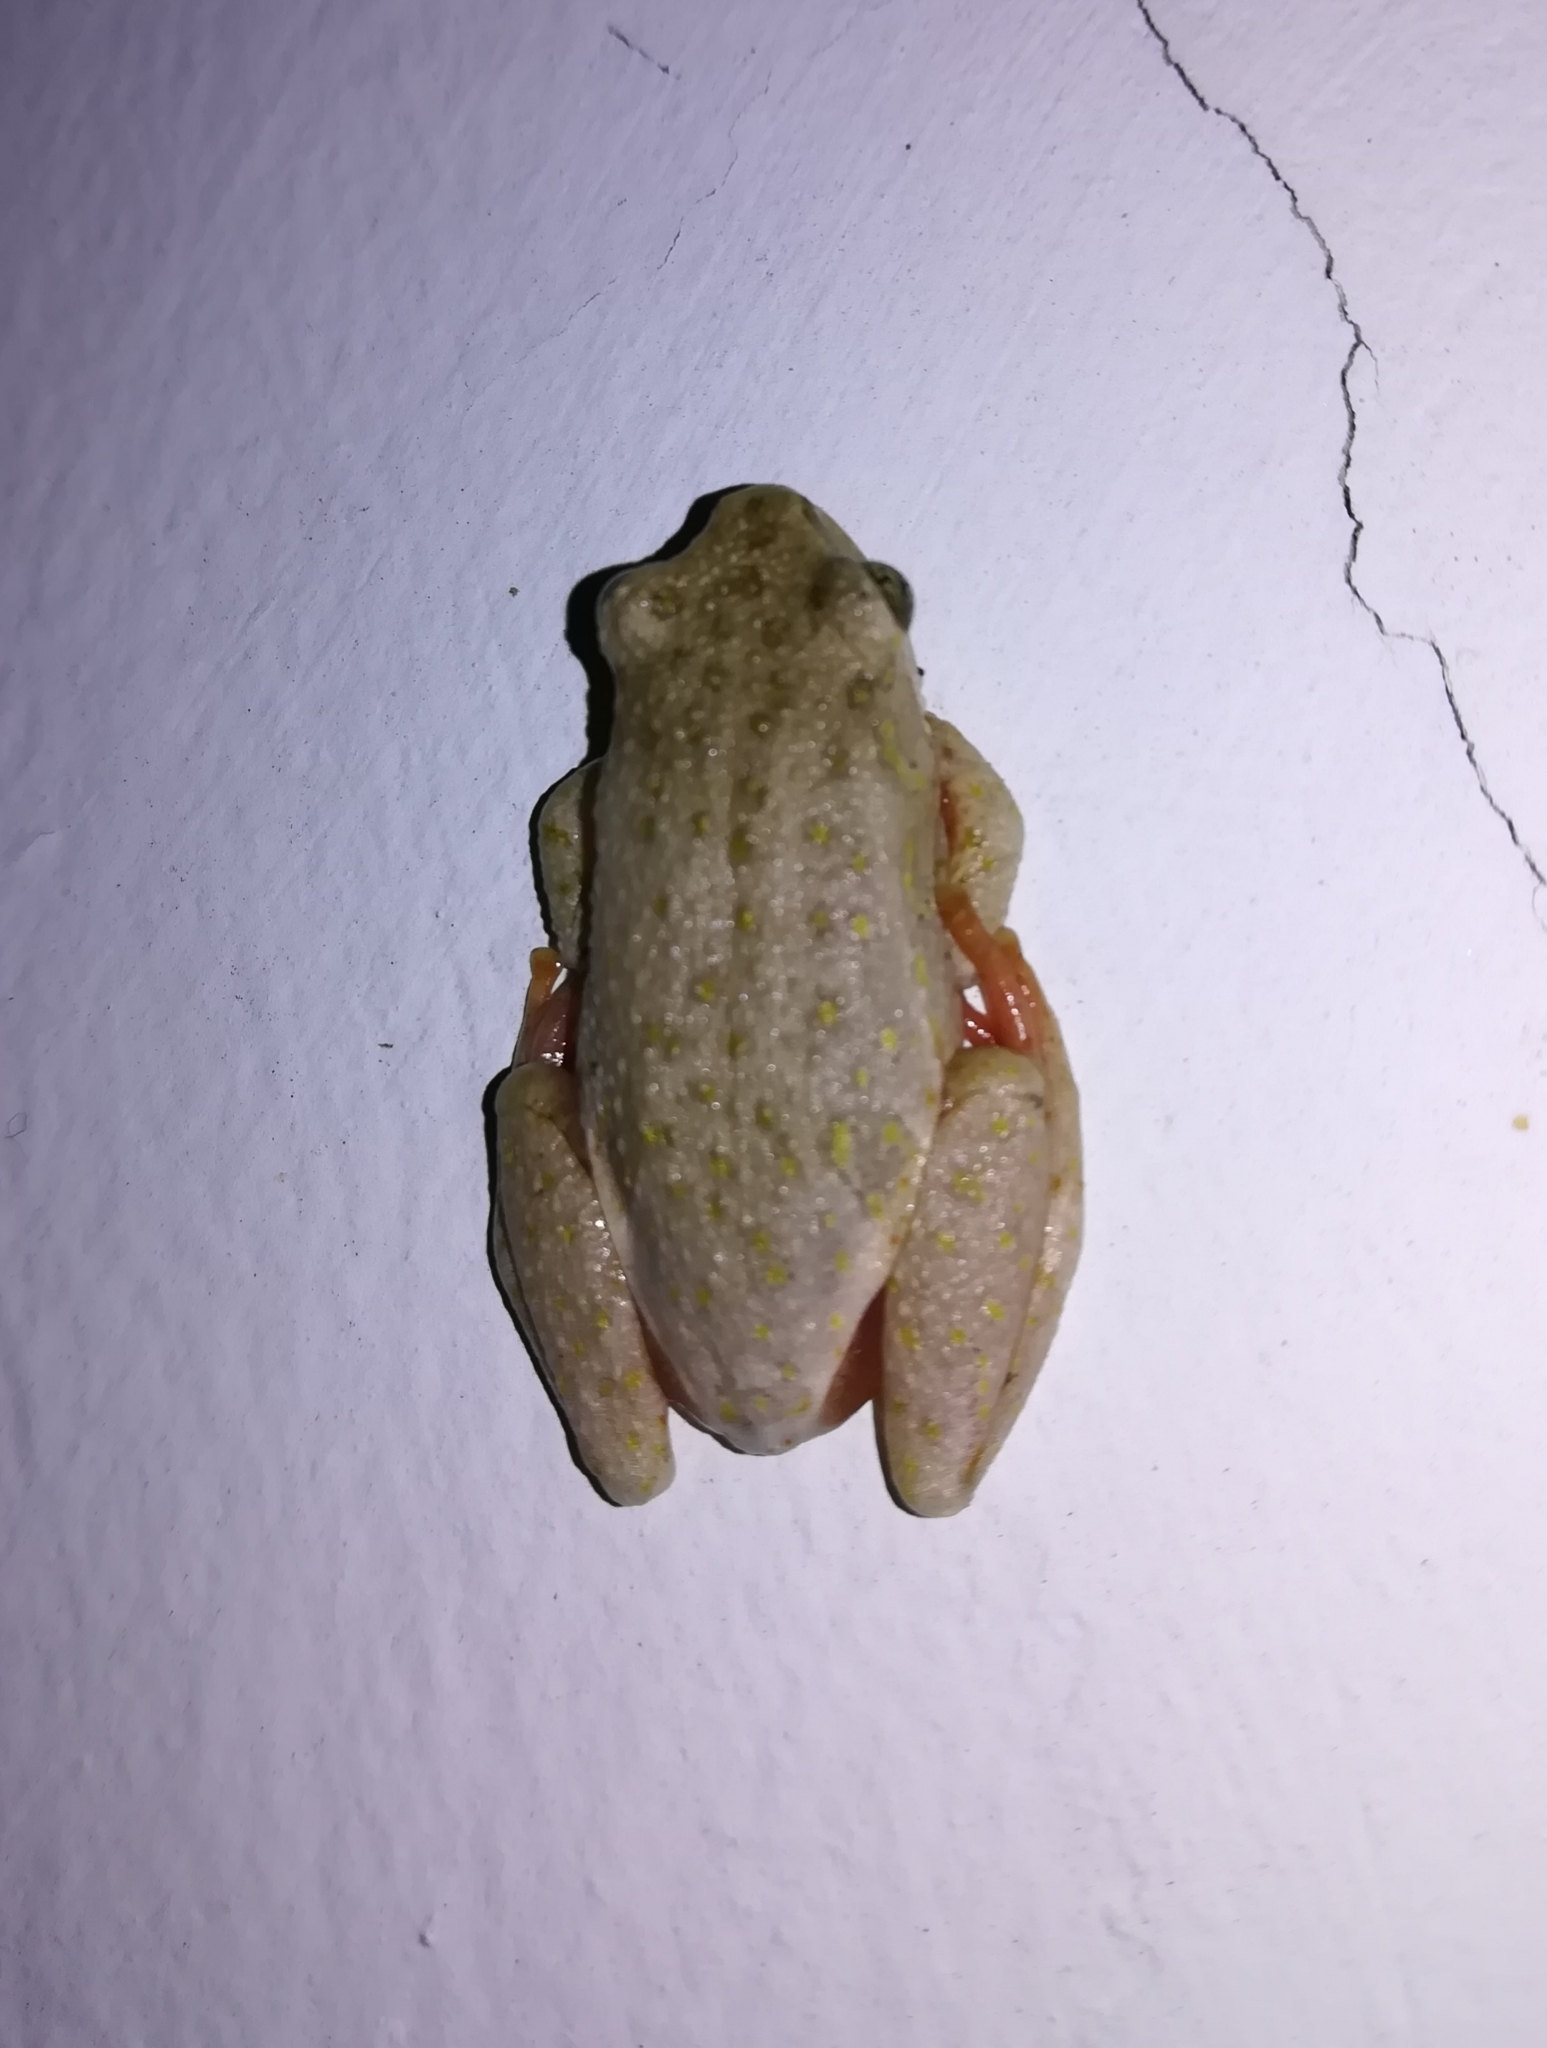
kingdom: Animalia
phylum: Chordata
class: Amphibia
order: Anura
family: Hyperoliidae
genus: Hyperolius
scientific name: Hyperolius marmoratus
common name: Painted reed frog
